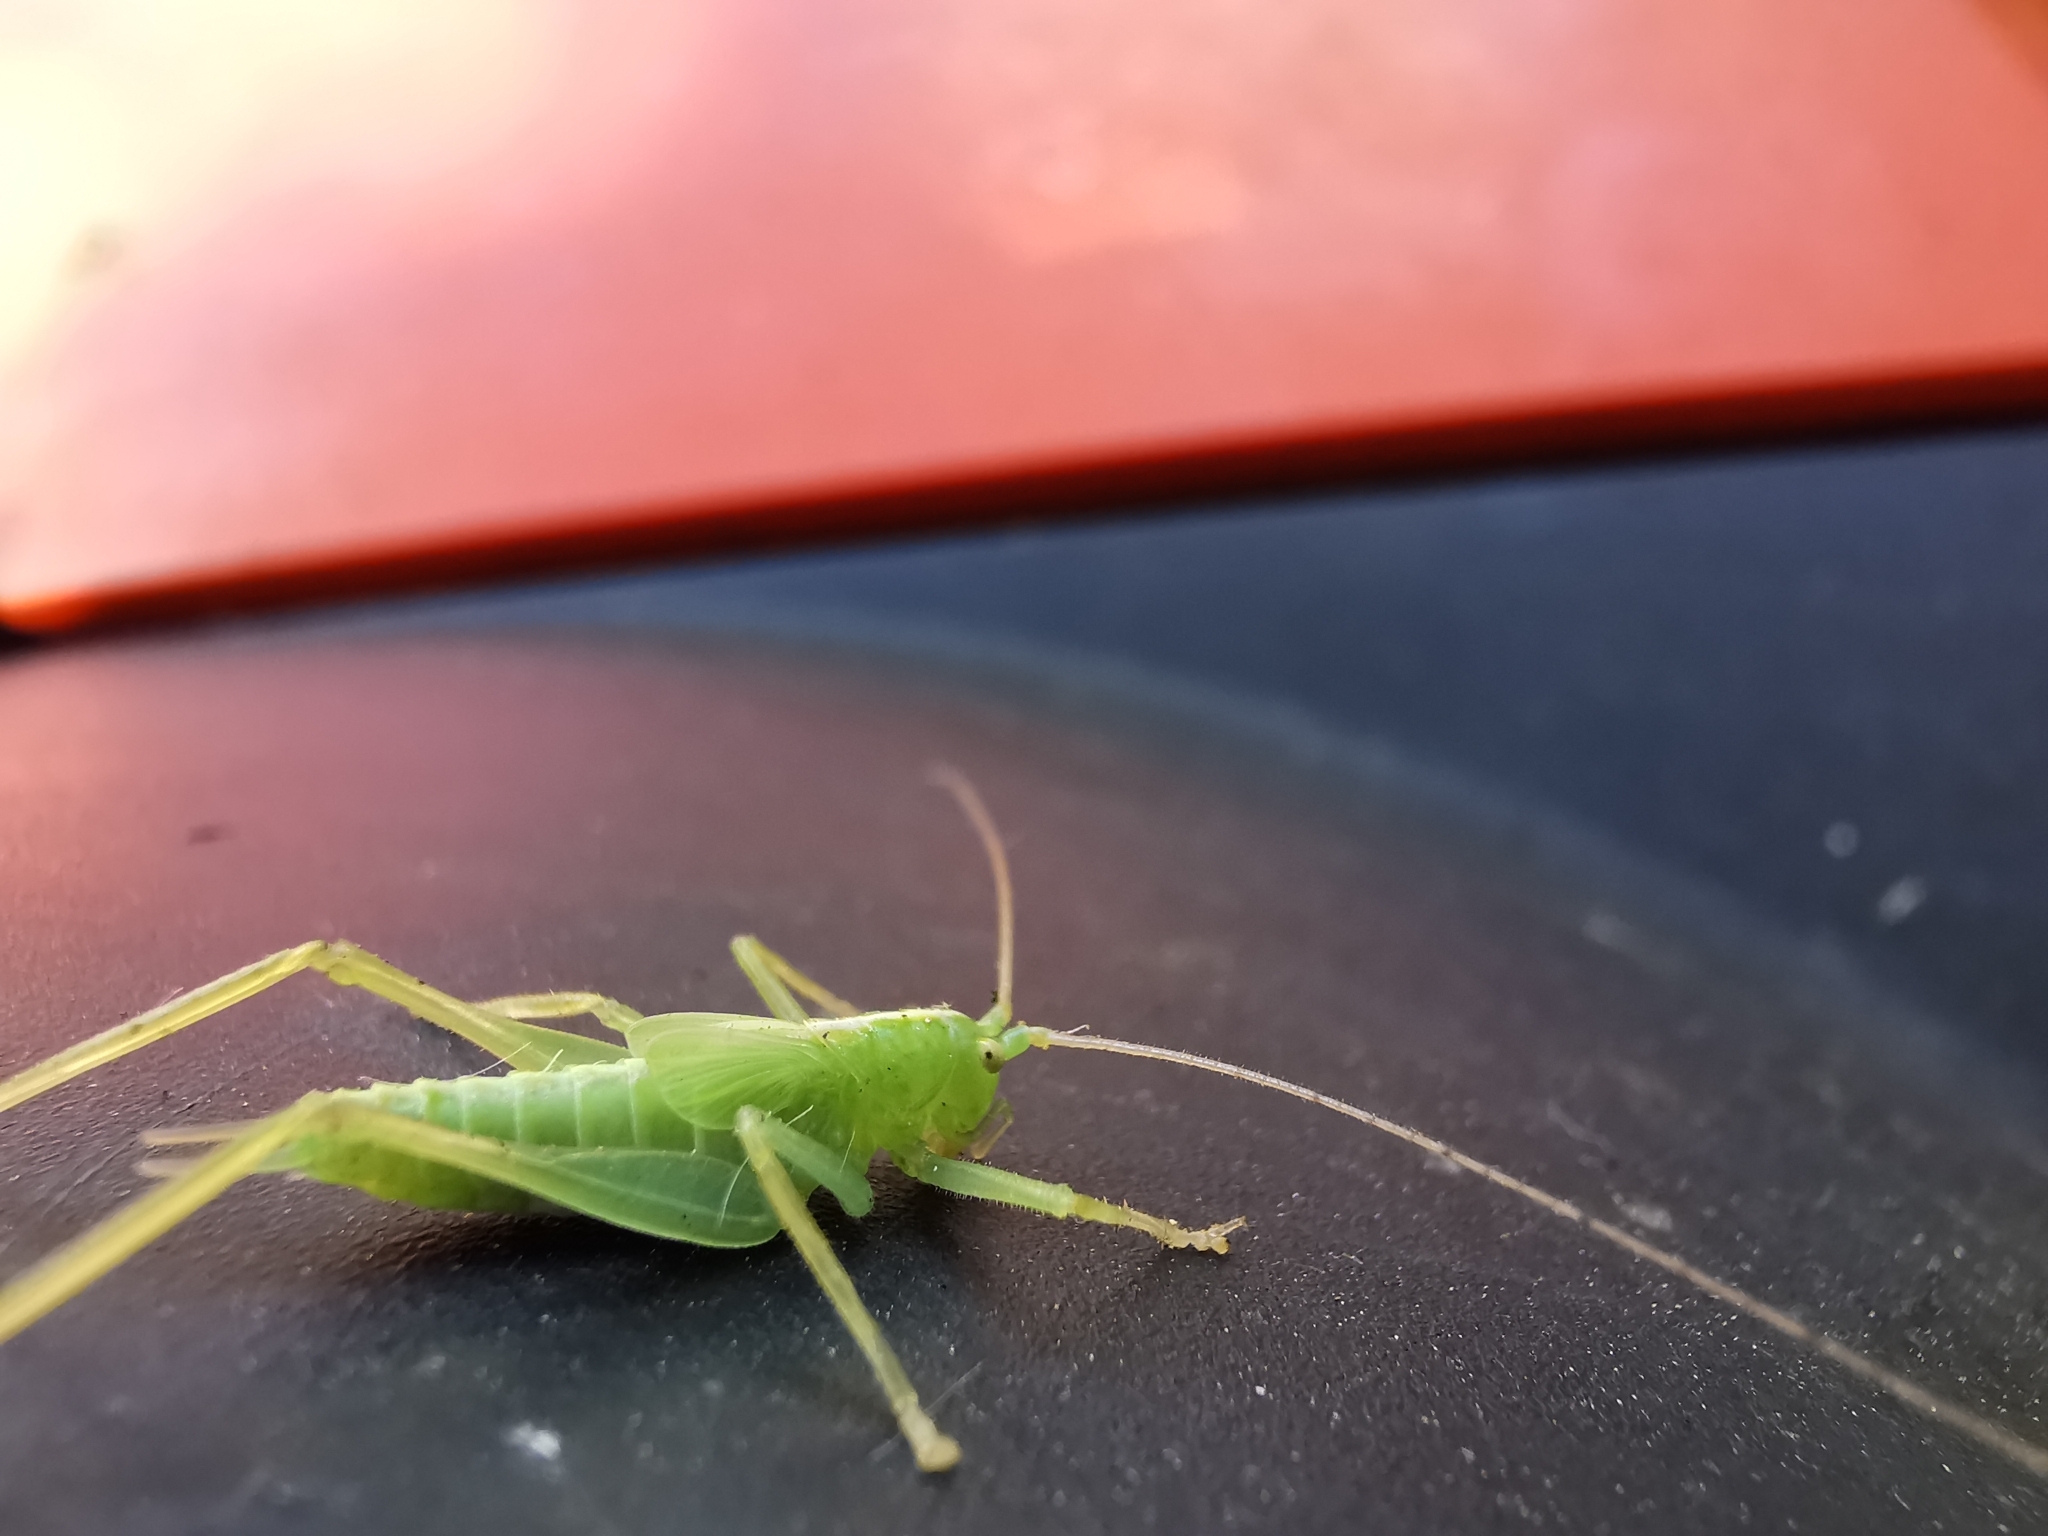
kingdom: Animalia
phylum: Arthropoda
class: Insecta
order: Orthoptera
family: Tettigoniidae
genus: Meconema
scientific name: Meconema thalassinum
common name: Oak bush-cricket
